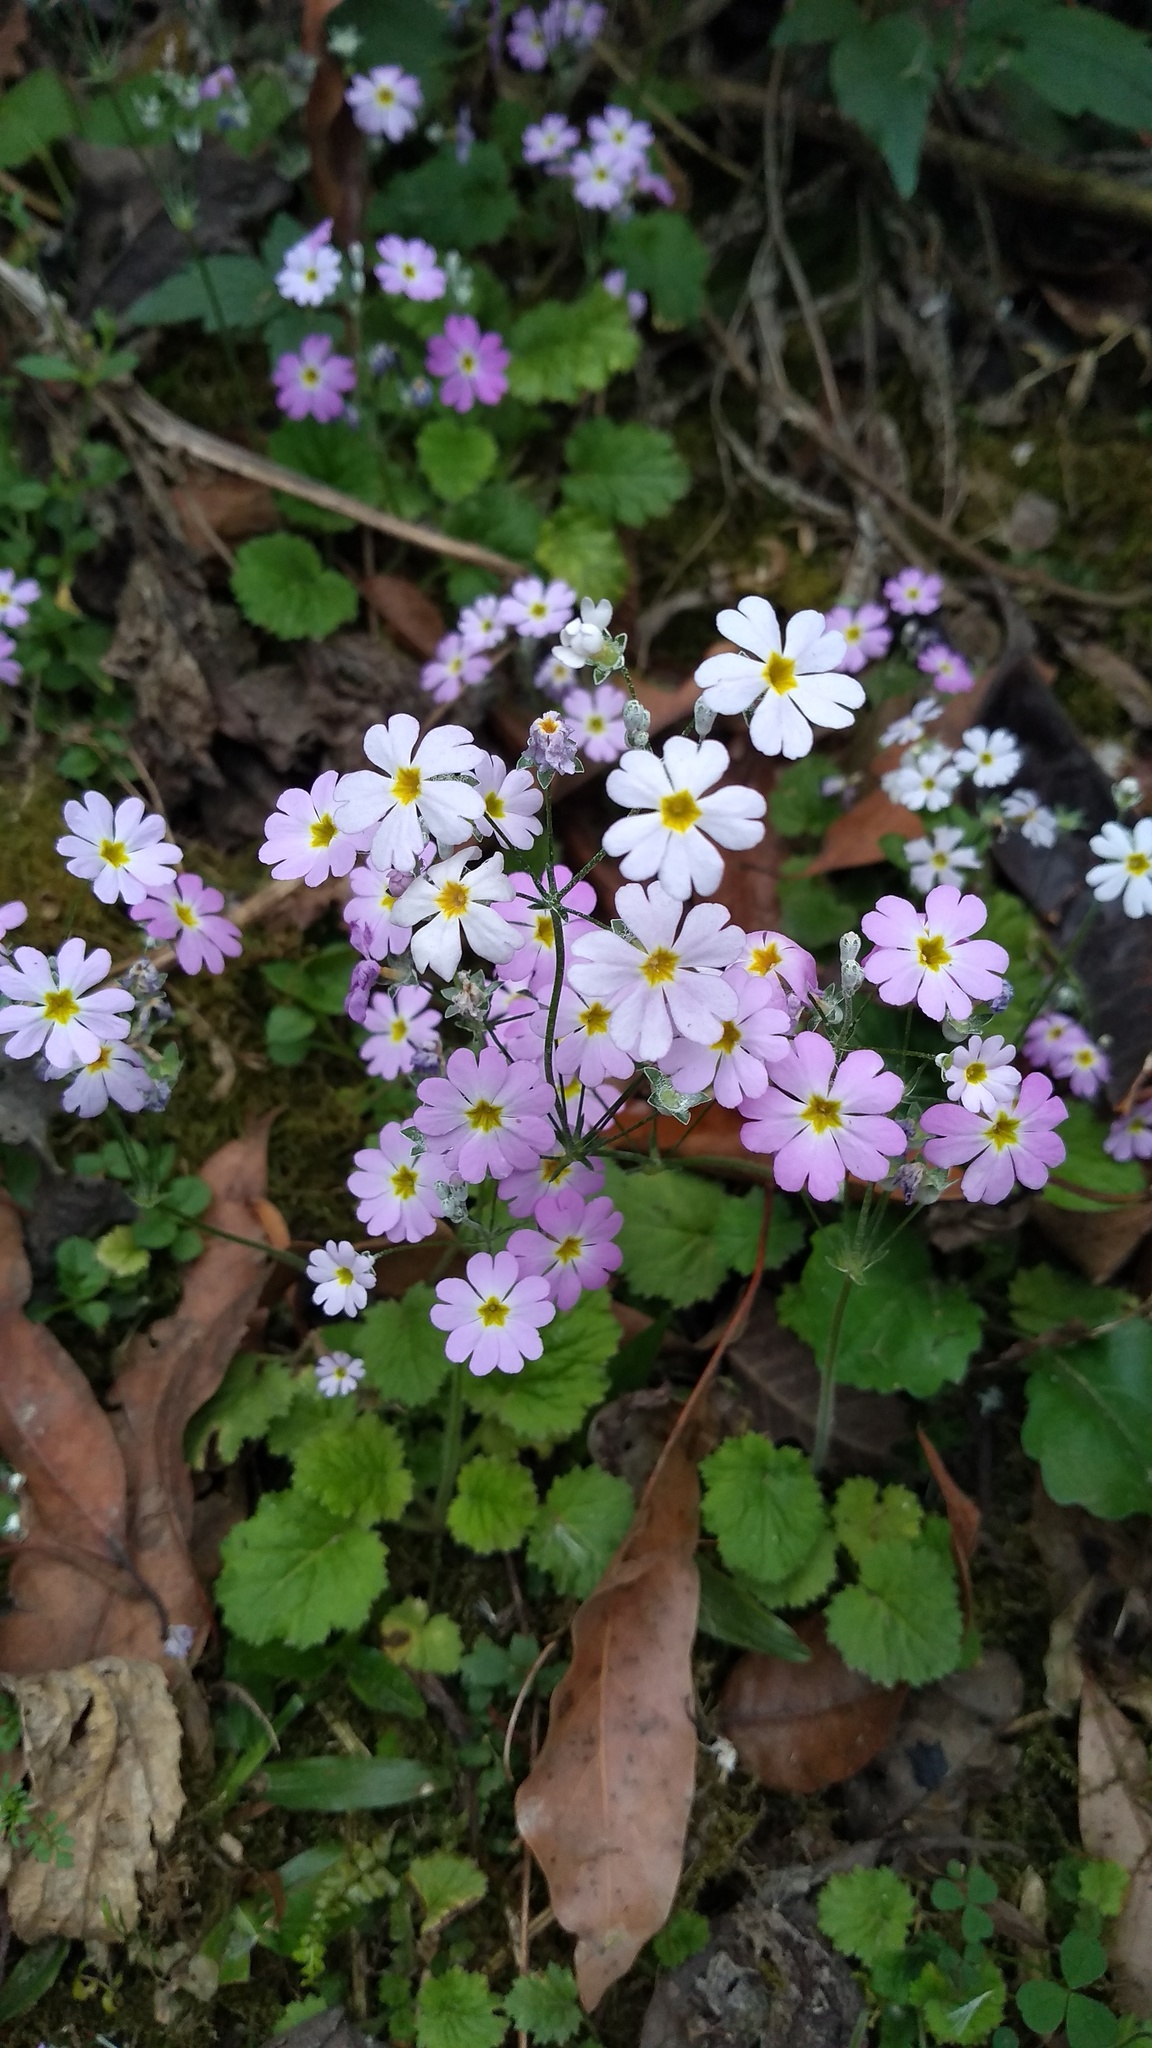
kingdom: Plantae
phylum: Tracheophyta
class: Magnoliopsida
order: Ericales
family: Primulaceae
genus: Primula
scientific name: Primula malacoides
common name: Baby primrose
